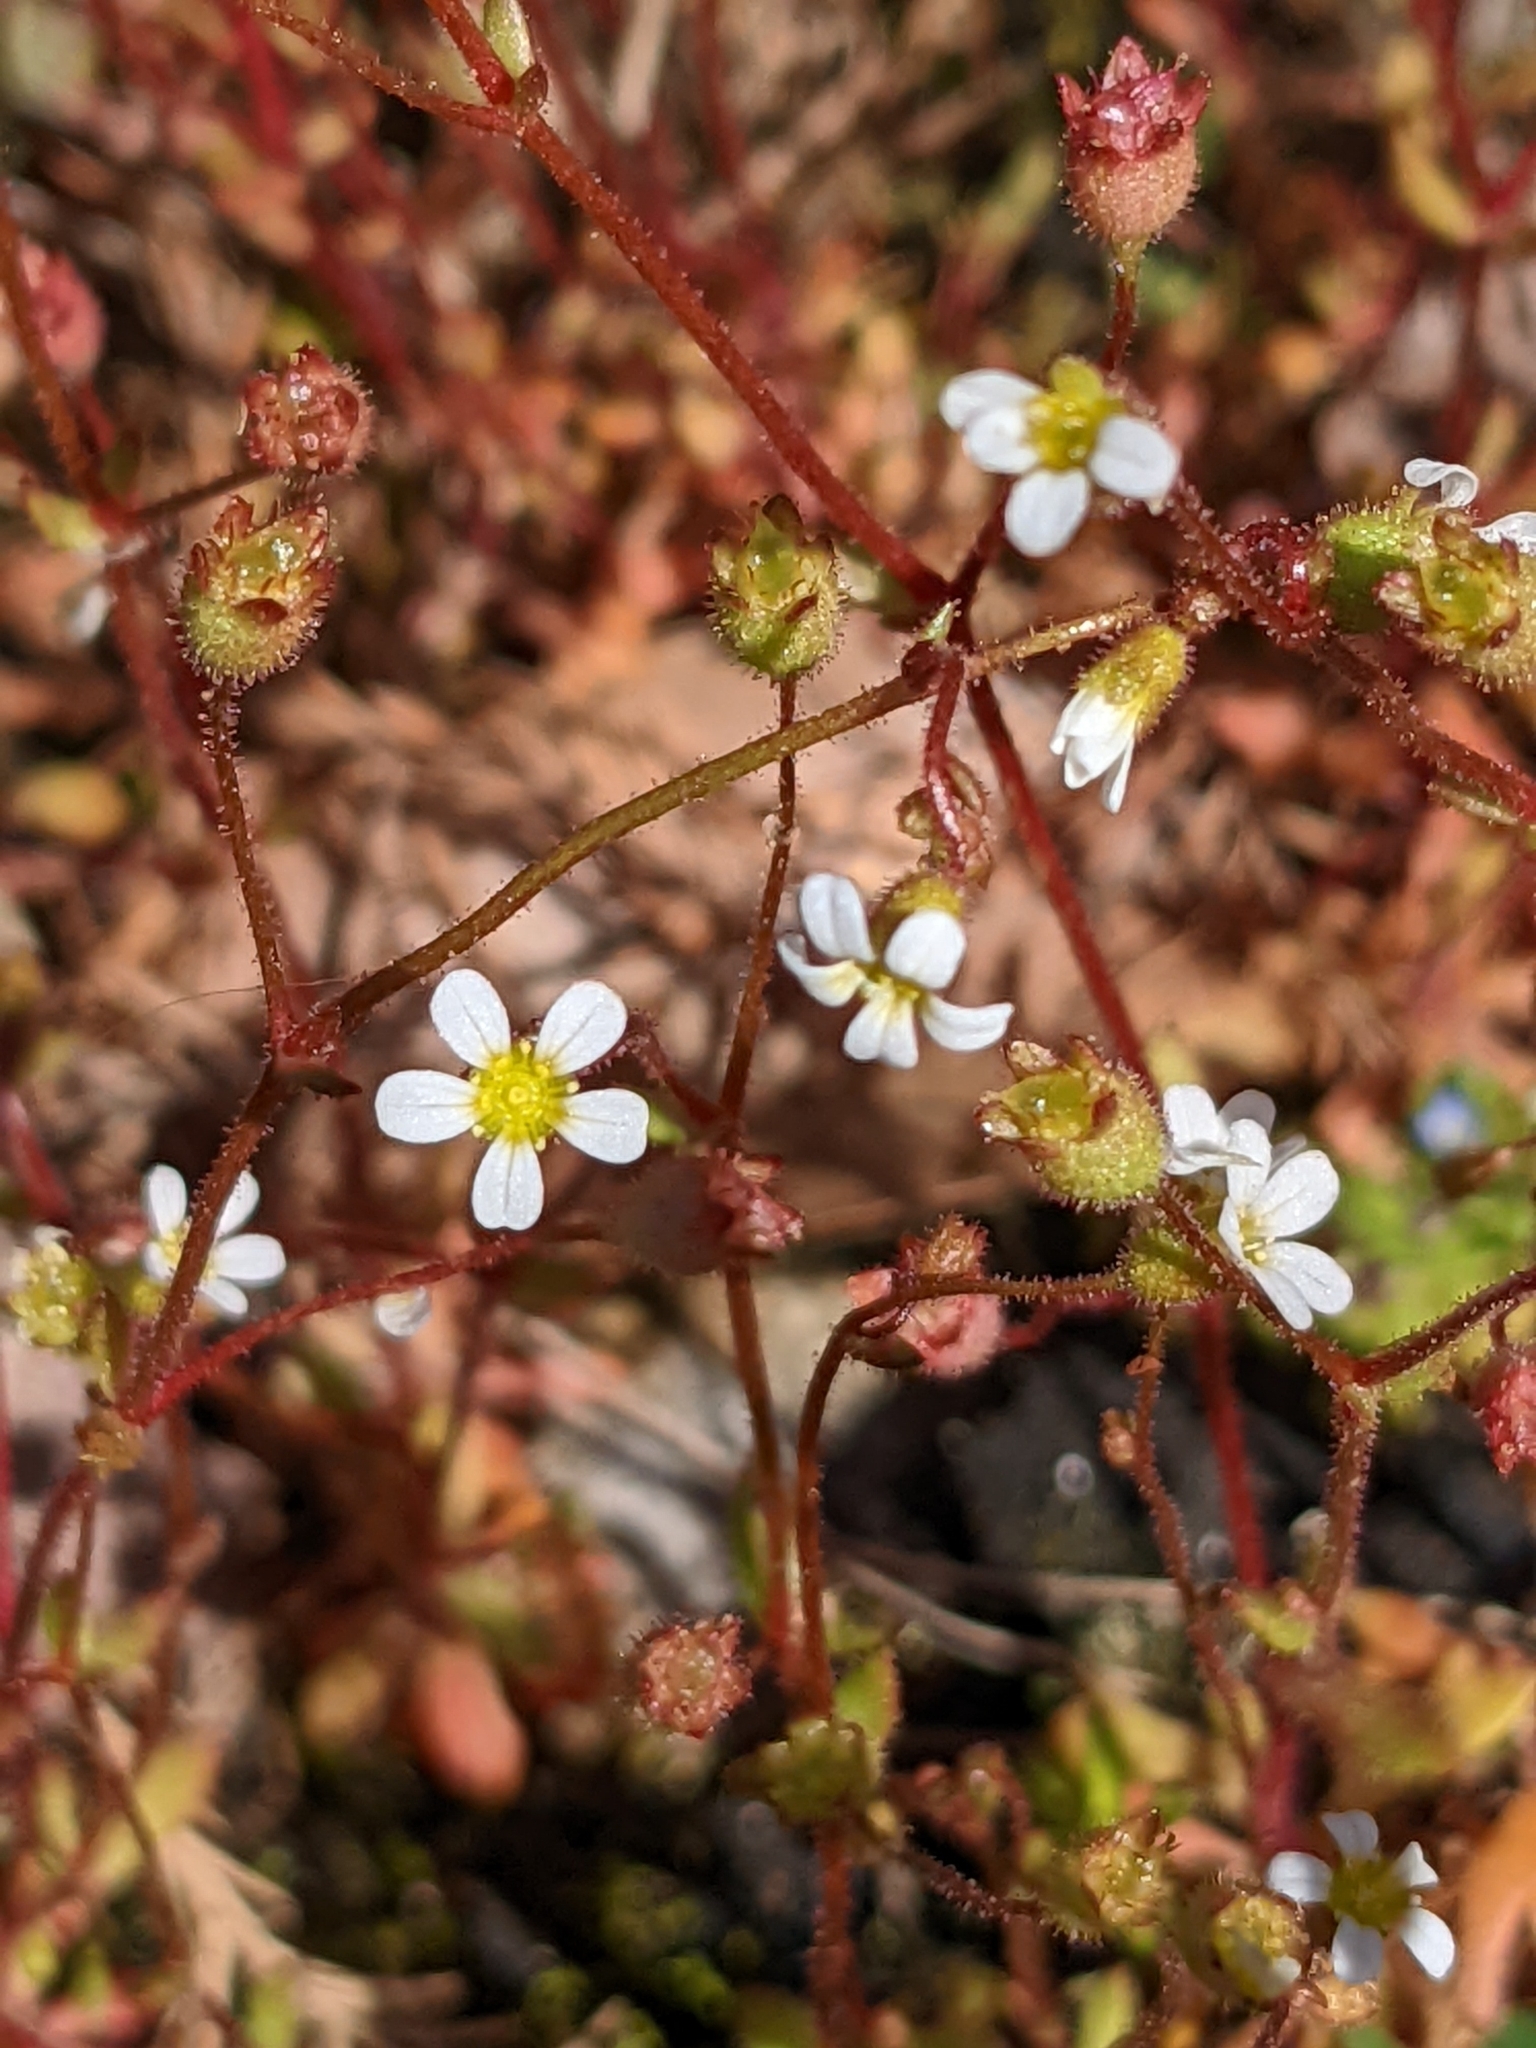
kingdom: Plantae
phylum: Tracheophyta
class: Magnoliopsida
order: Saxifragales
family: Saxifragaceae
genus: Saxifraga
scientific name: Saxifraga tridactylites
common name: Rue-leaved saxifrage
